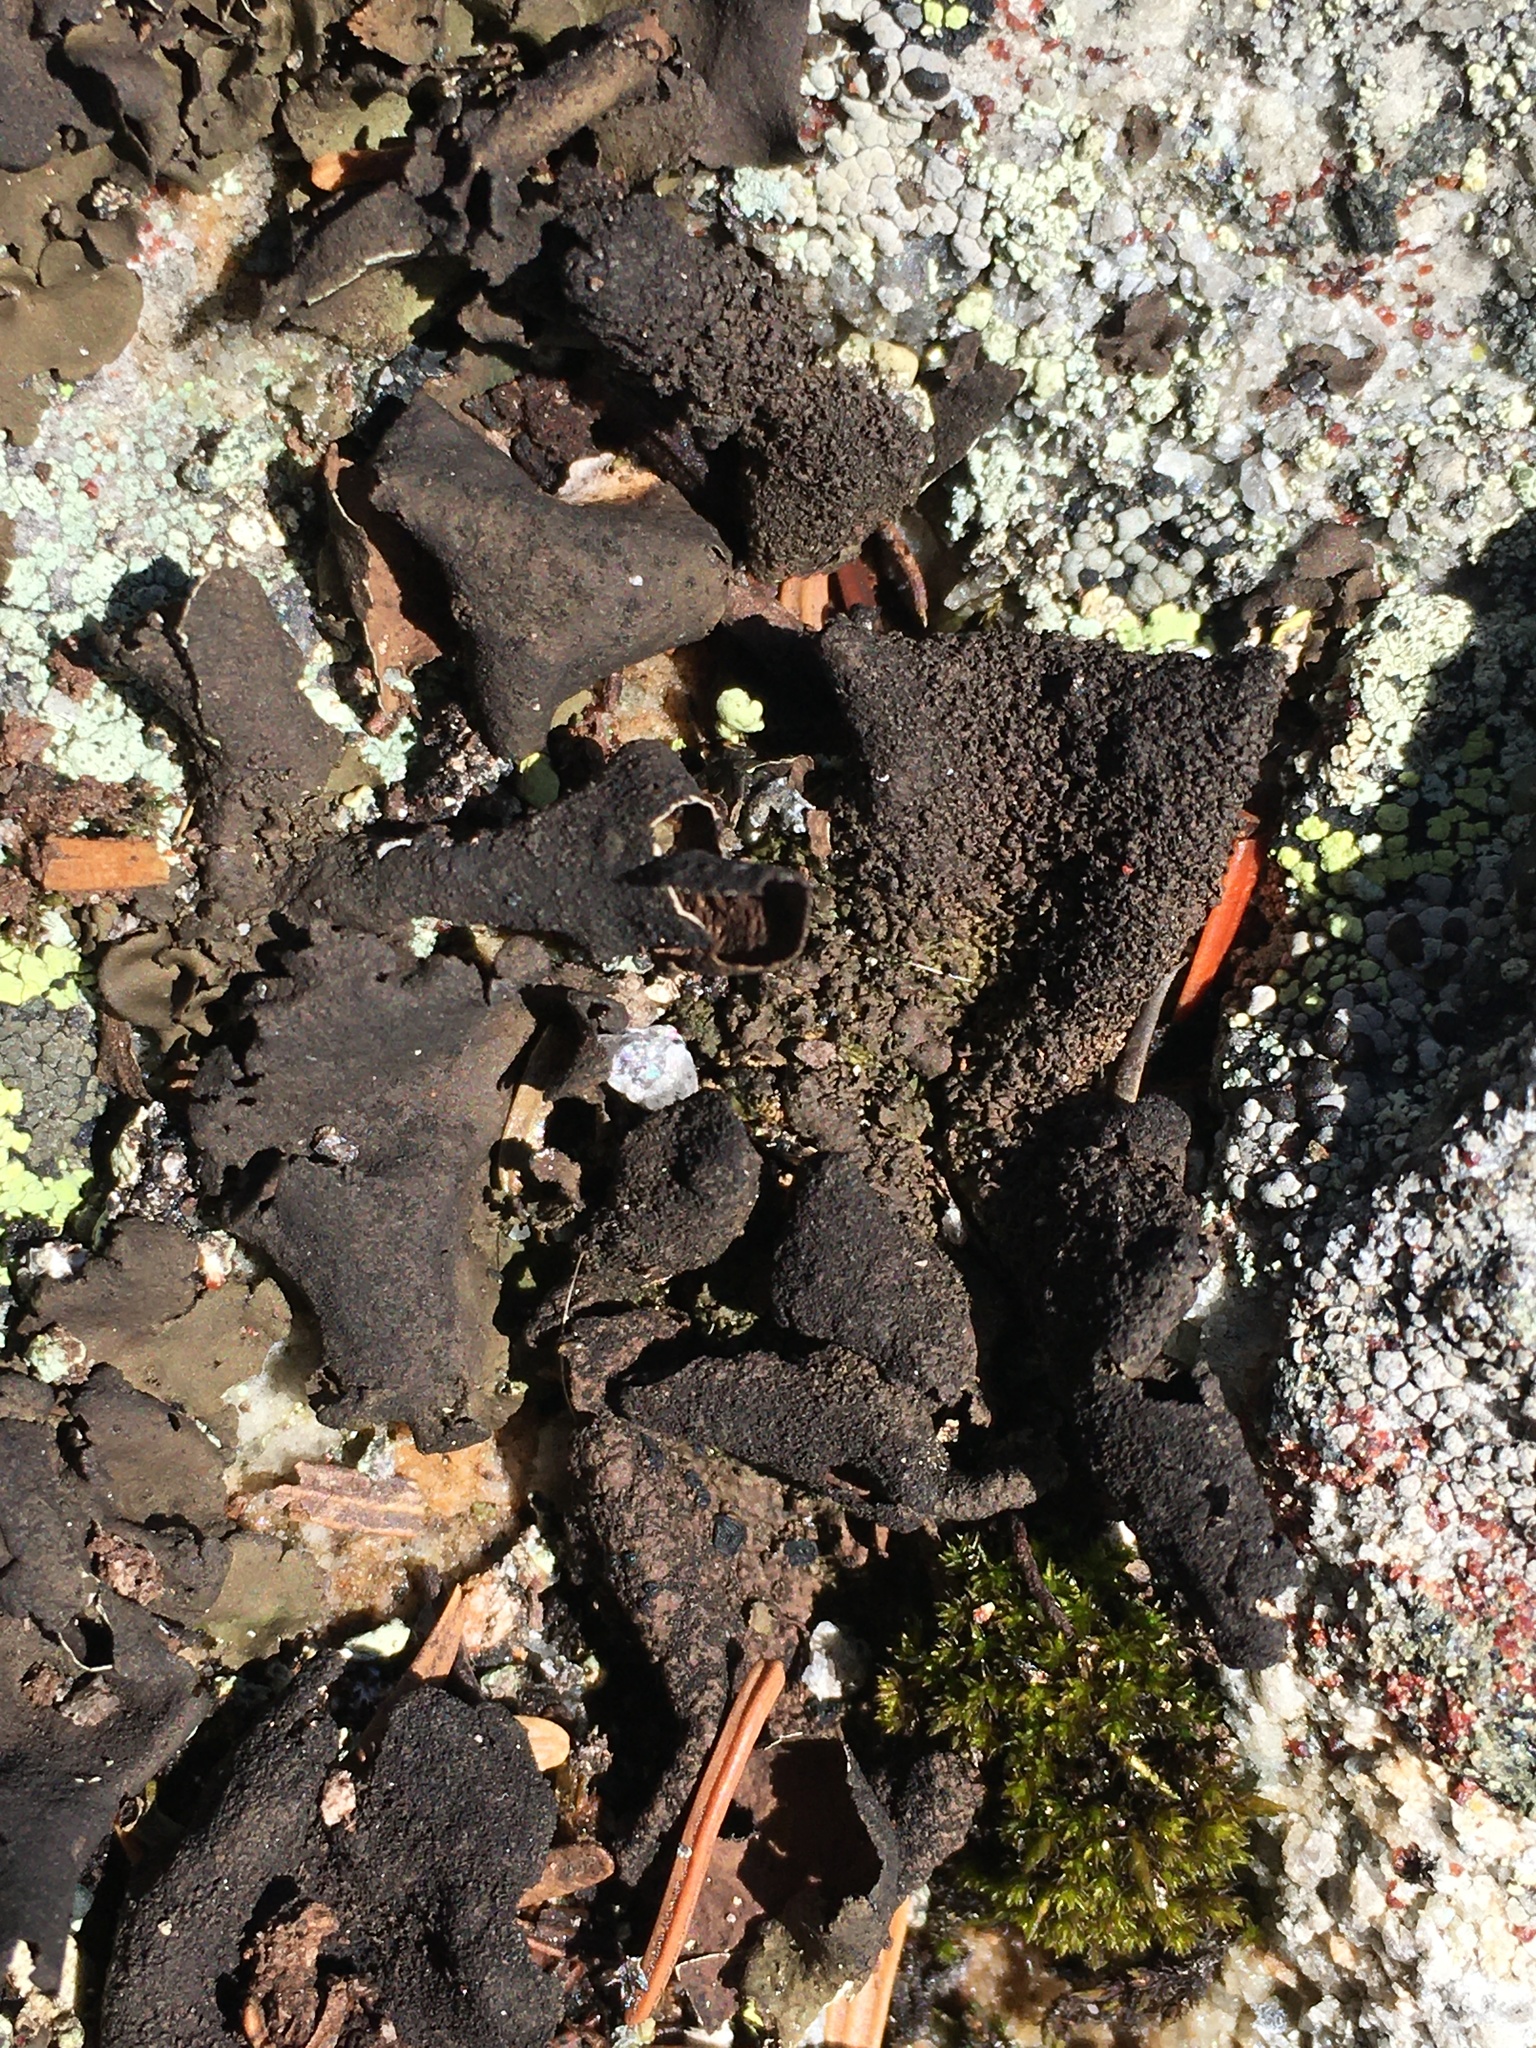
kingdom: Fungi
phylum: Ascomycota
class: Lecanoromycetes
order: Umbilicariales
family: Umbilicariaceae
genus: Umbilicaria
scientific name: Umbilicaria mammulata
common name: Smooth rock tripe
